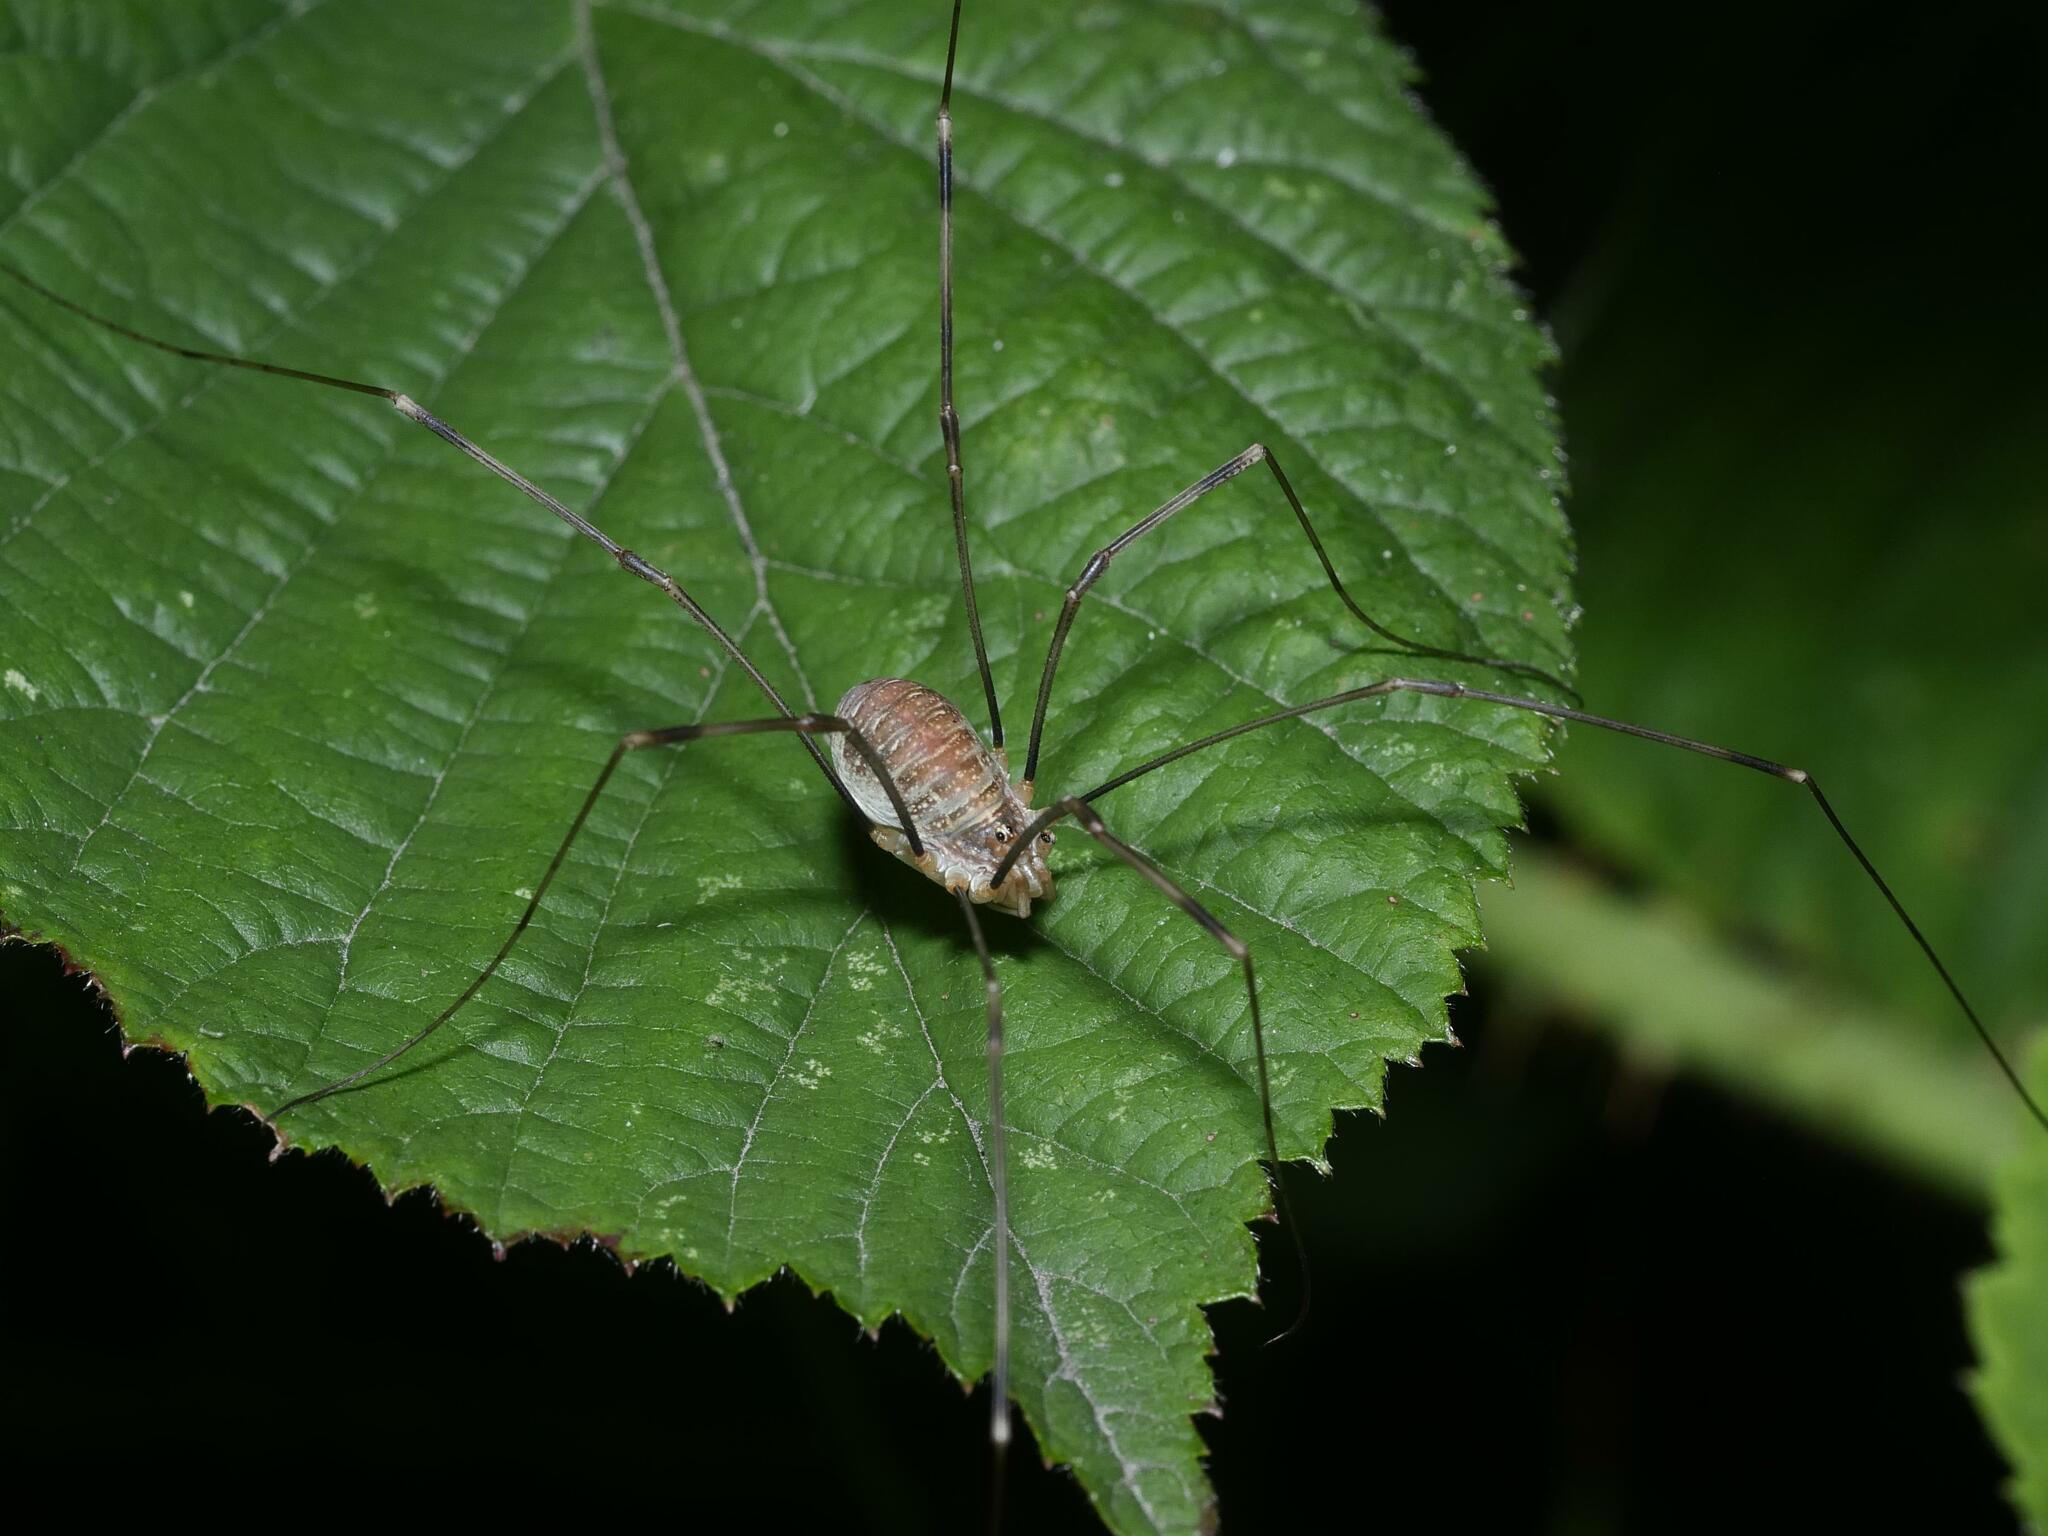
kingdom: Animalia
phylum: Arthropoda
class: Arachnida
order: Opiliones
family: Phalangiidae
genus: Opilio
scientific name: Opilio canestrinii
